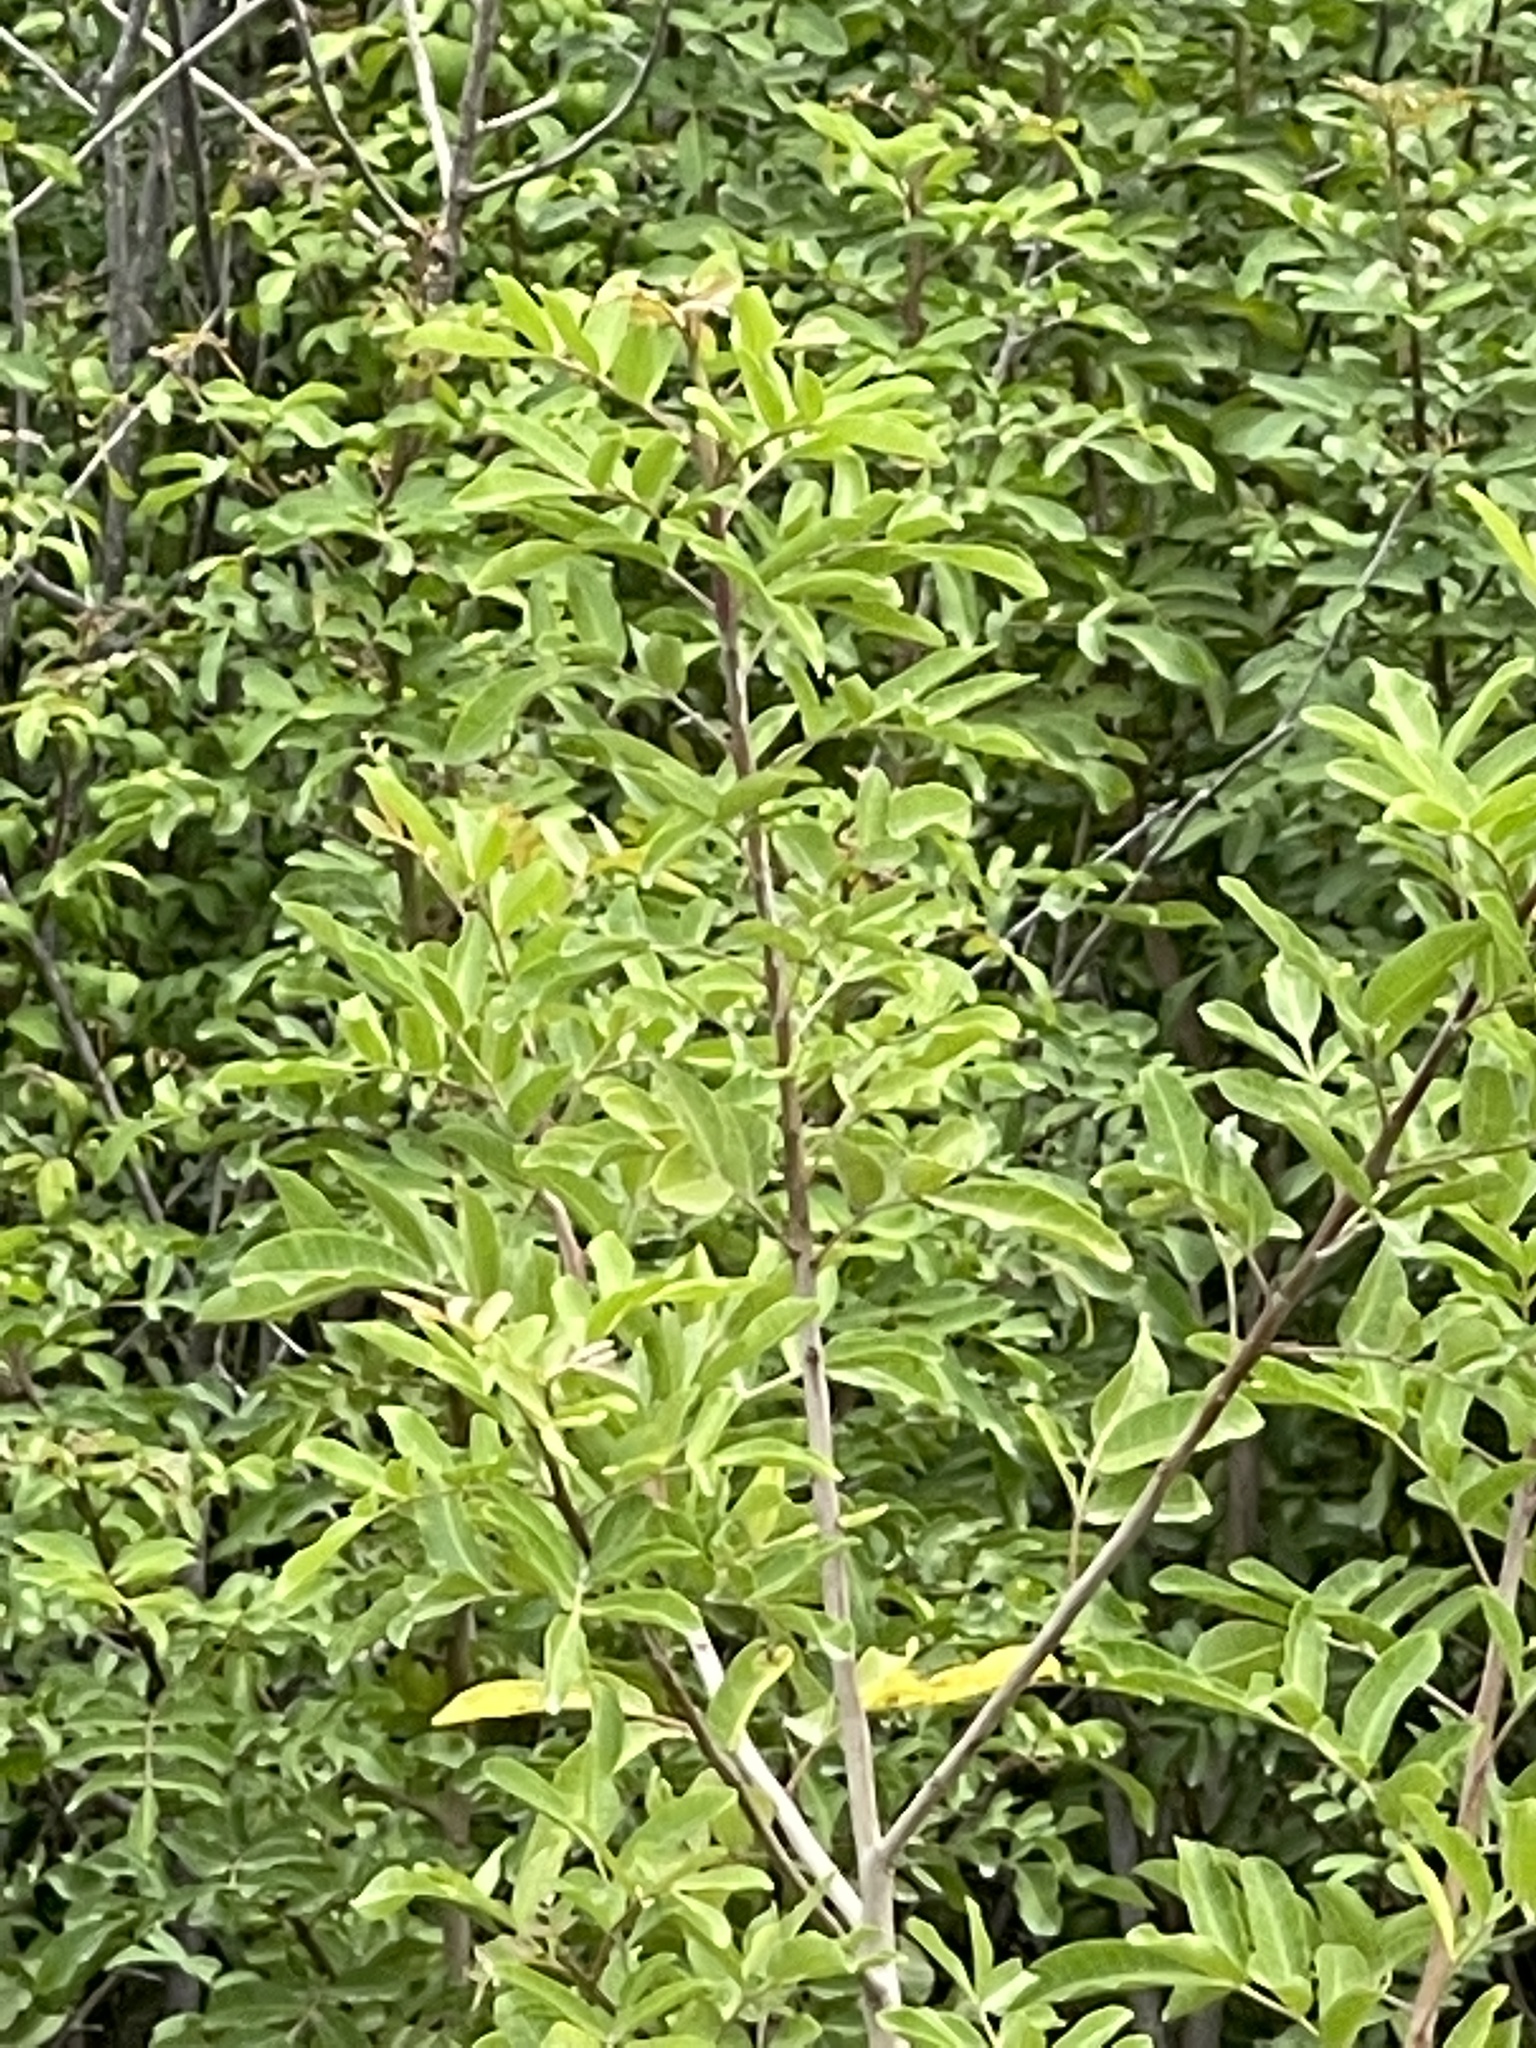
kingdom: Plantae
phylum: Tracheophyta
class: Magnoliopsida
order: Sapindales
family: Anacardiaceae
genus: Schinus
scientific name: Schinus terebinthifolia
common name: Brazilian peppertree
